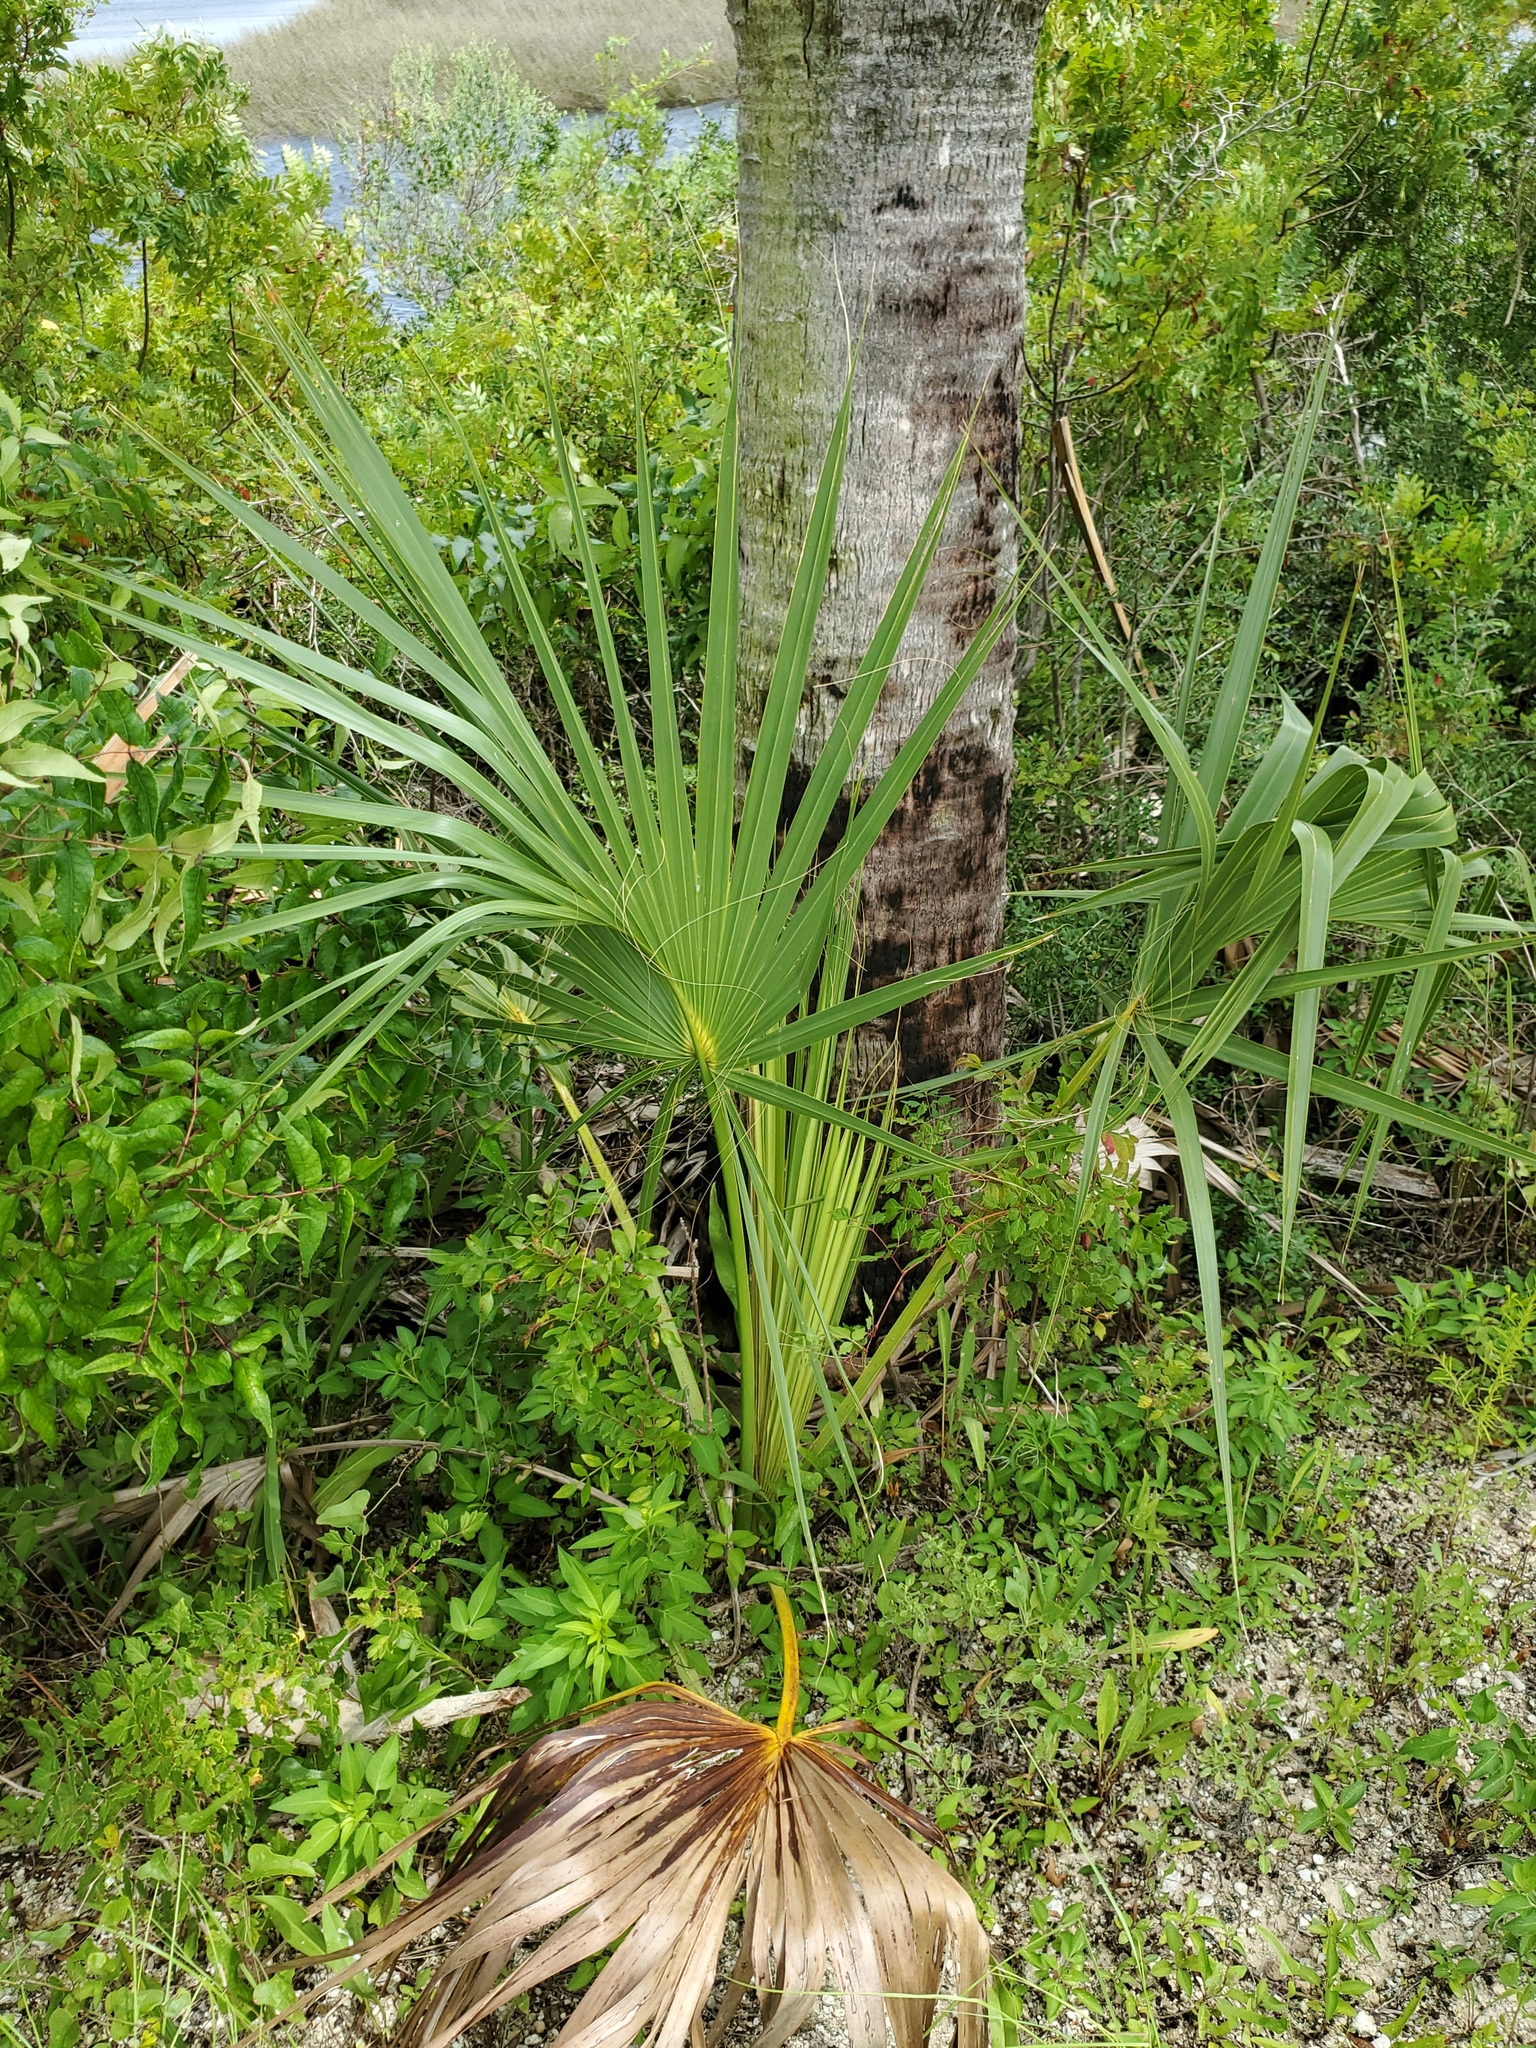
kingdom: Plantae
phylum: Tracheophyta
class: Liliopsida
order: Arecales
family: Arecaceae
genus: Sabal
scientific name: Sabal palmetto
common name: Blue palmetto
